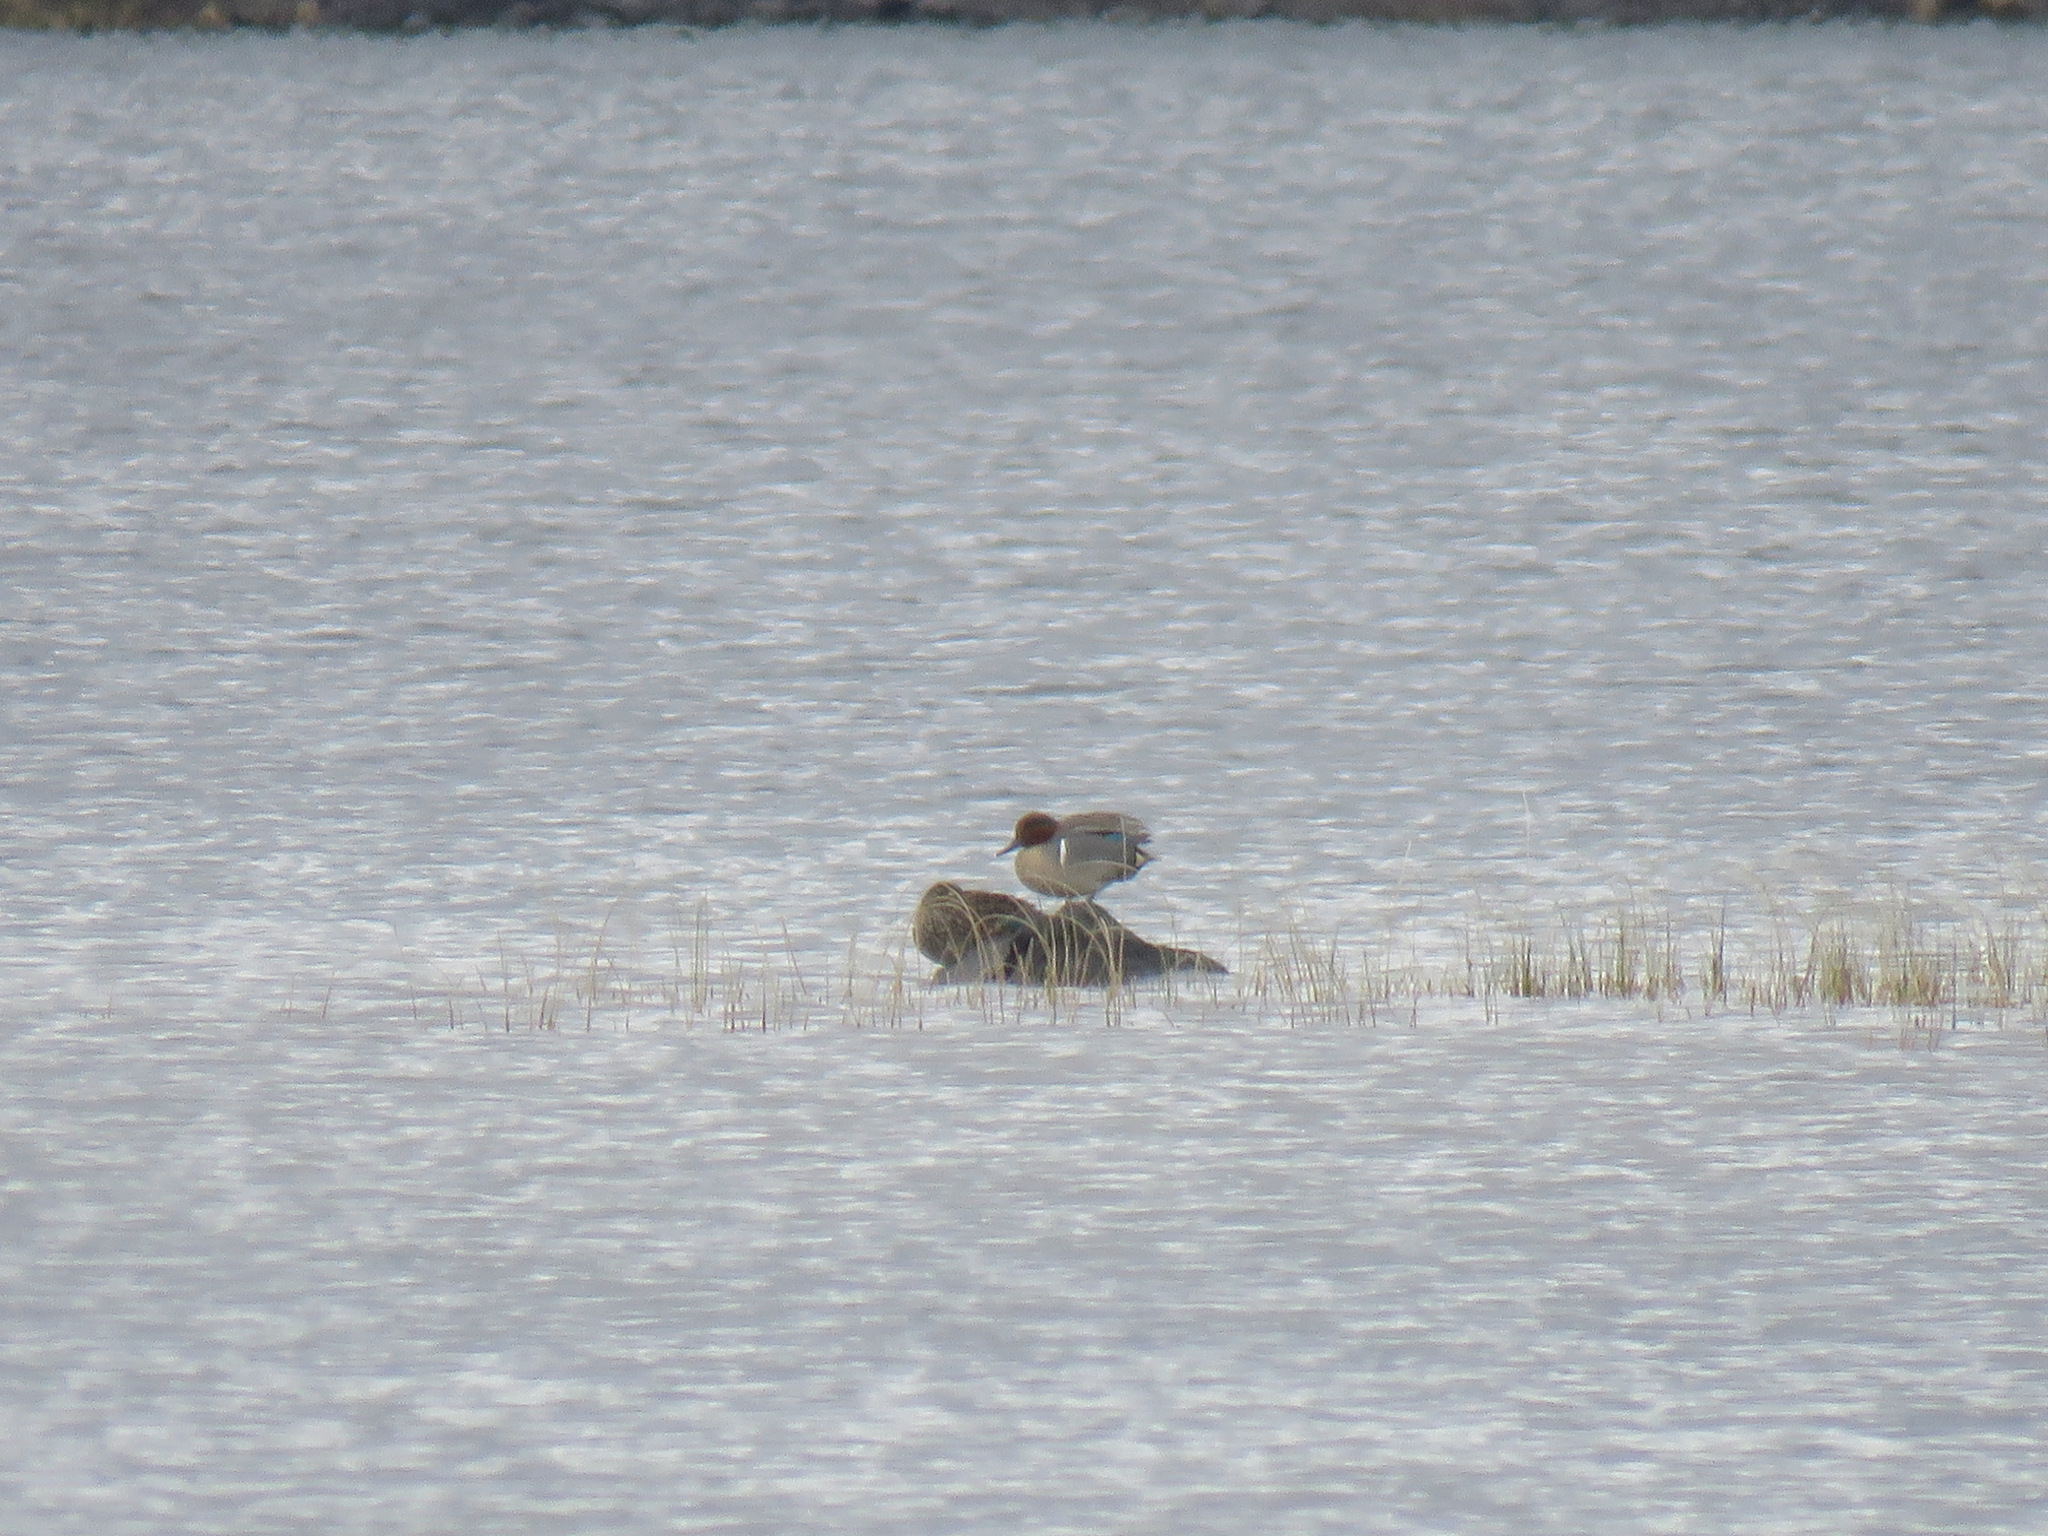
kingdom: Animalia
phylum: Chordata
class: Aves
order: Anseriformes
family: Anatidae
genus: Anas
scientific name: Anas crecca
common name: Eurasian teal
